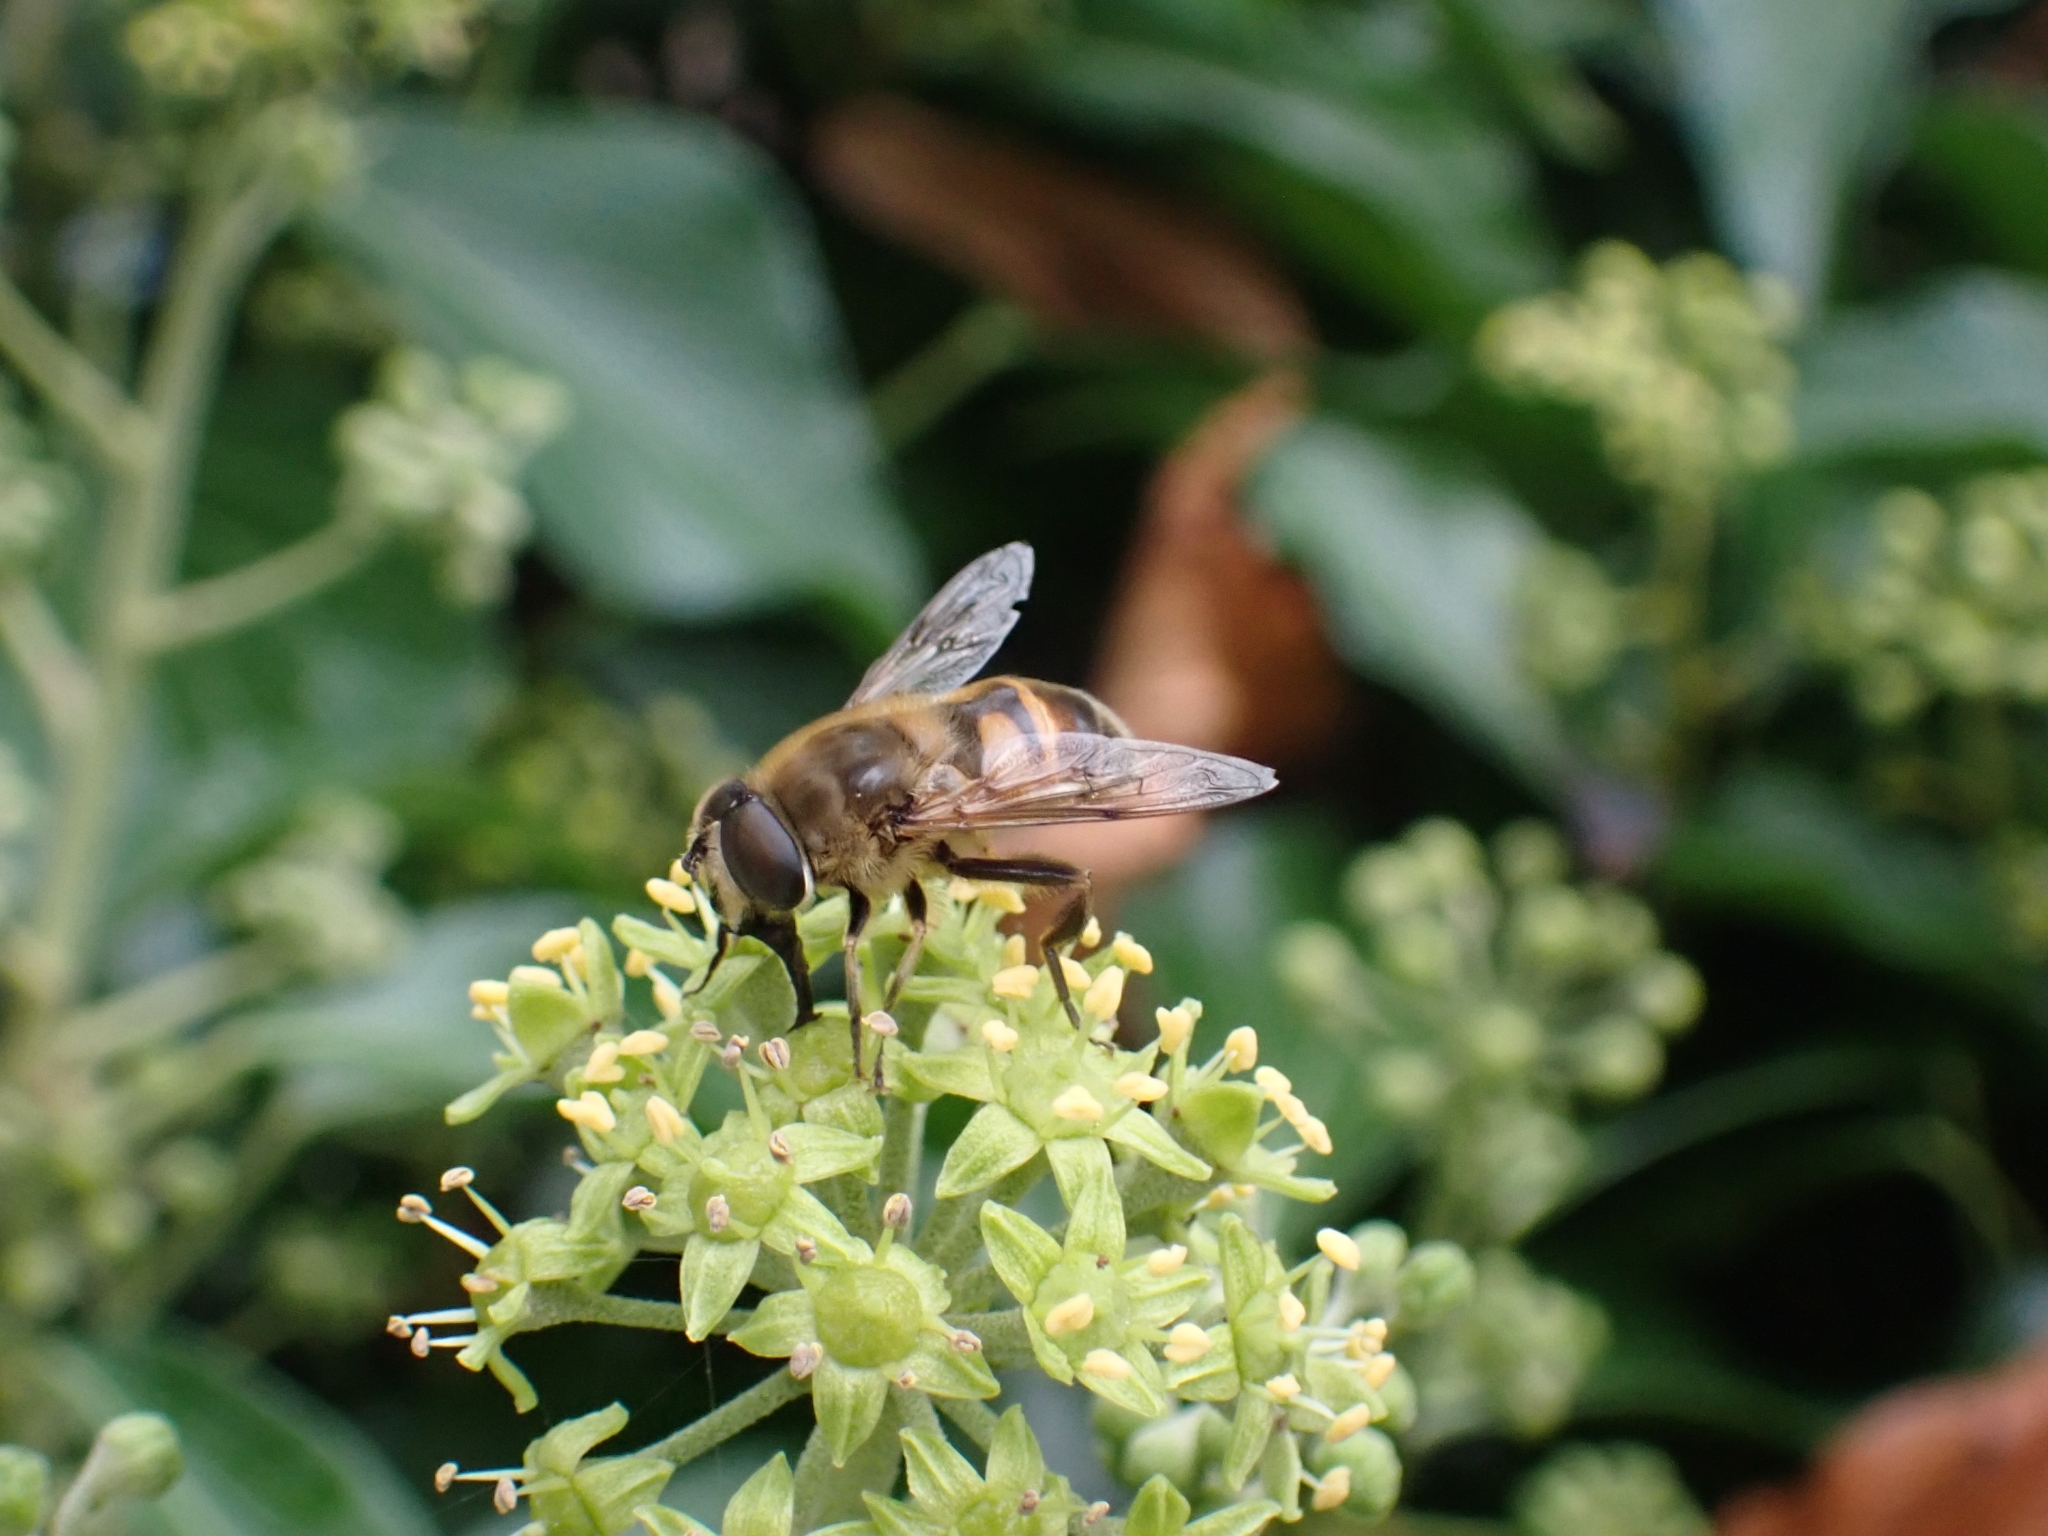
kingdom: Animalia
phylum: Arthropoda
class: Insecta
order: Diptera
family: Syrphidae
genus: Eristalis
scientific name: Eristalis tenax
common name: Drone fly
